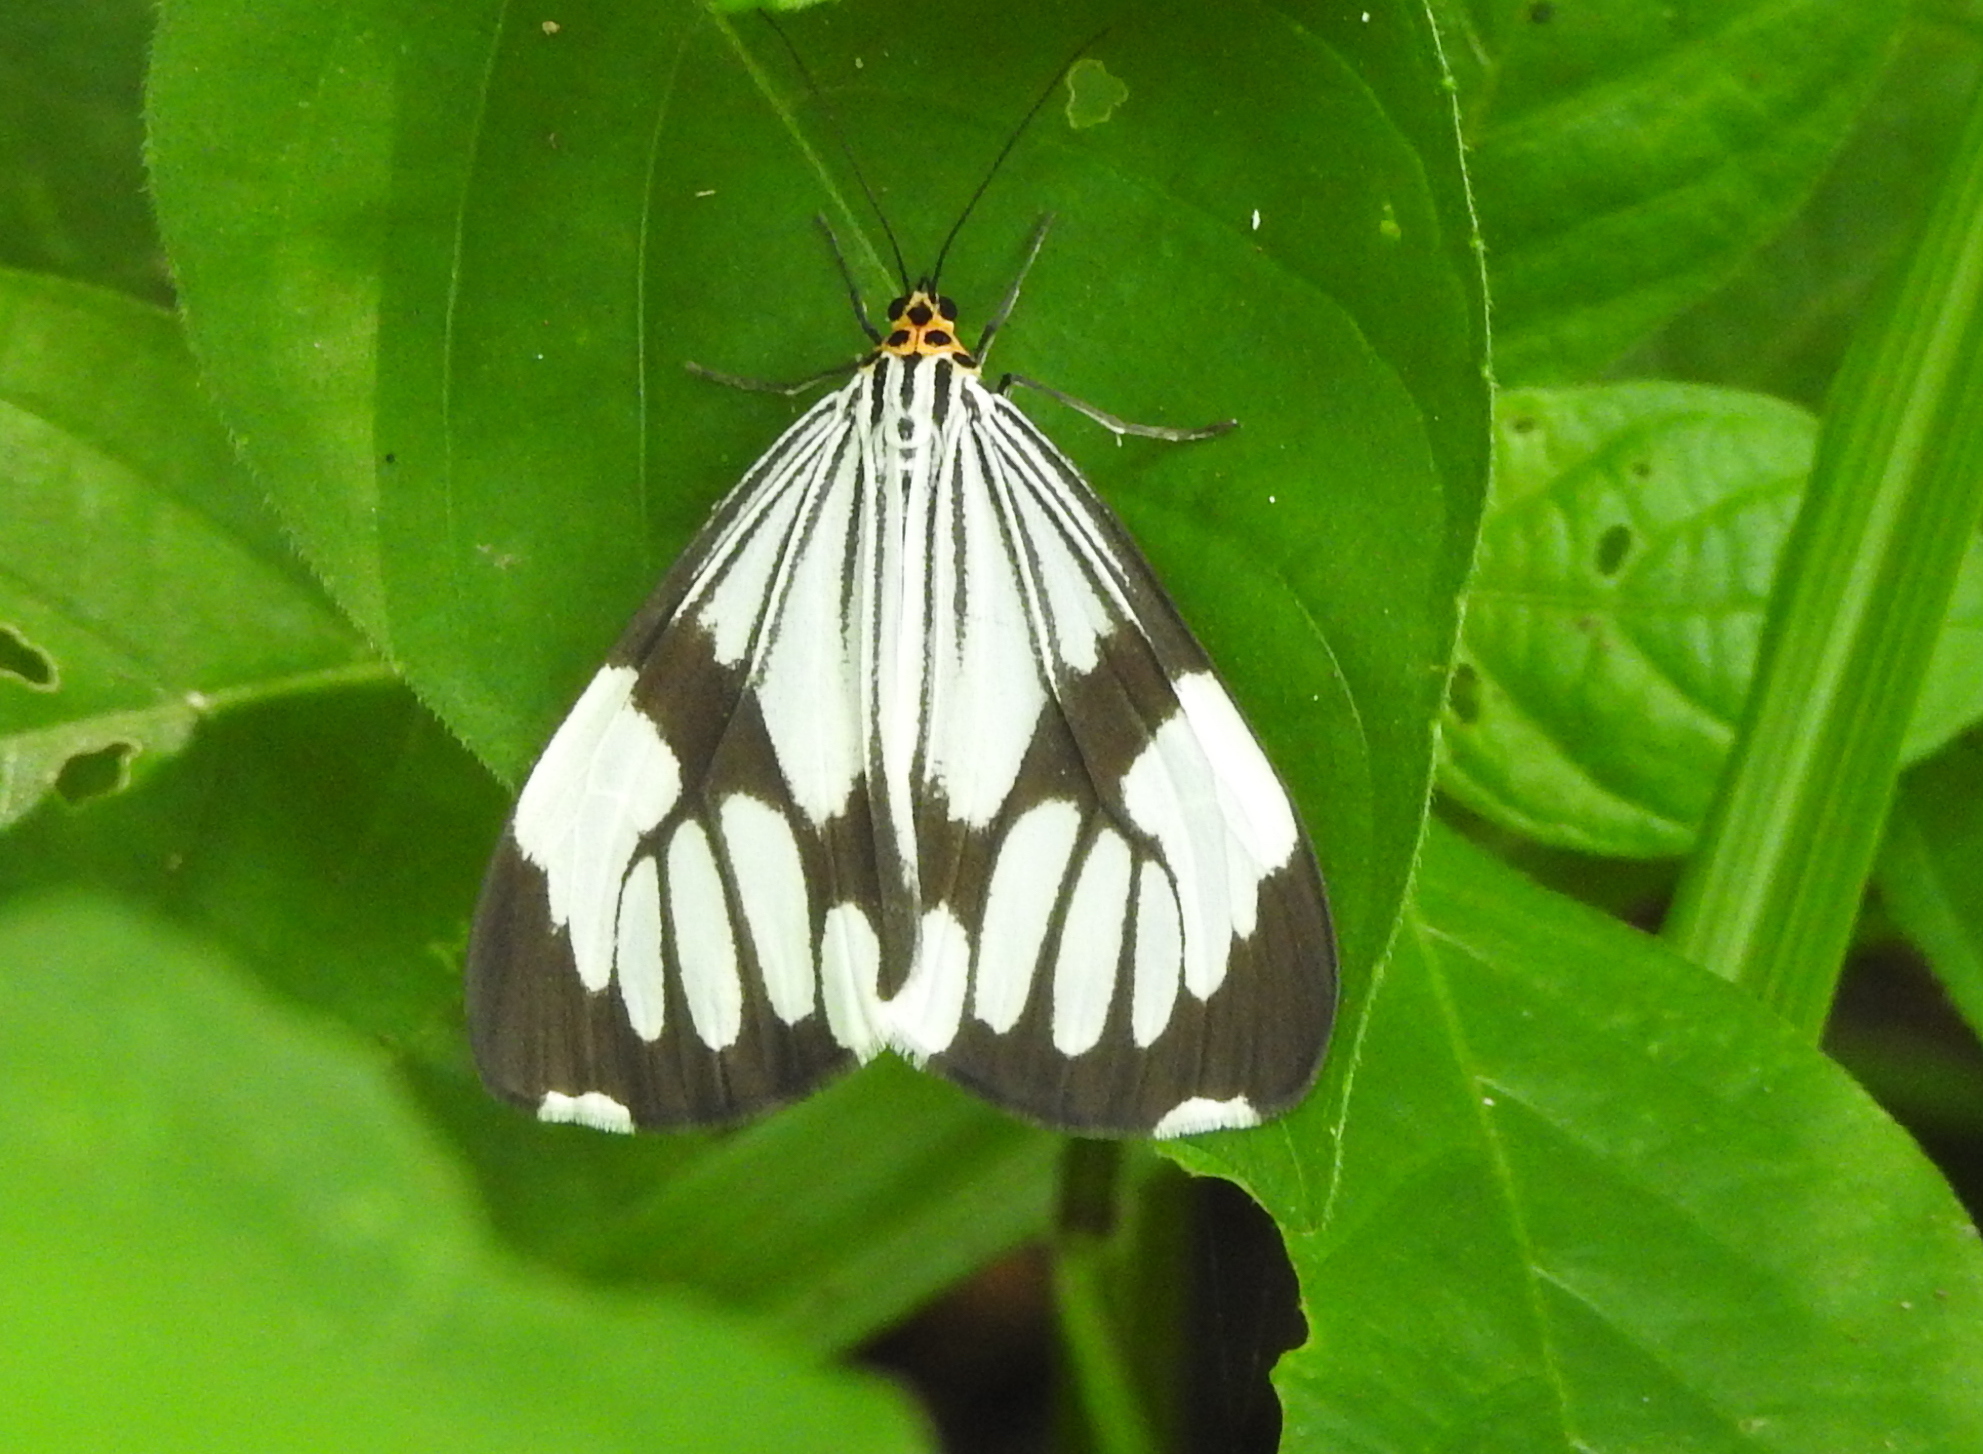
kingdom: Animalia
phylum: Arthropoda
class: Insecta
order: Lepidoptera
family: Erebidae
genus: Nyctemera
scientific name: Nyctemera coleta
